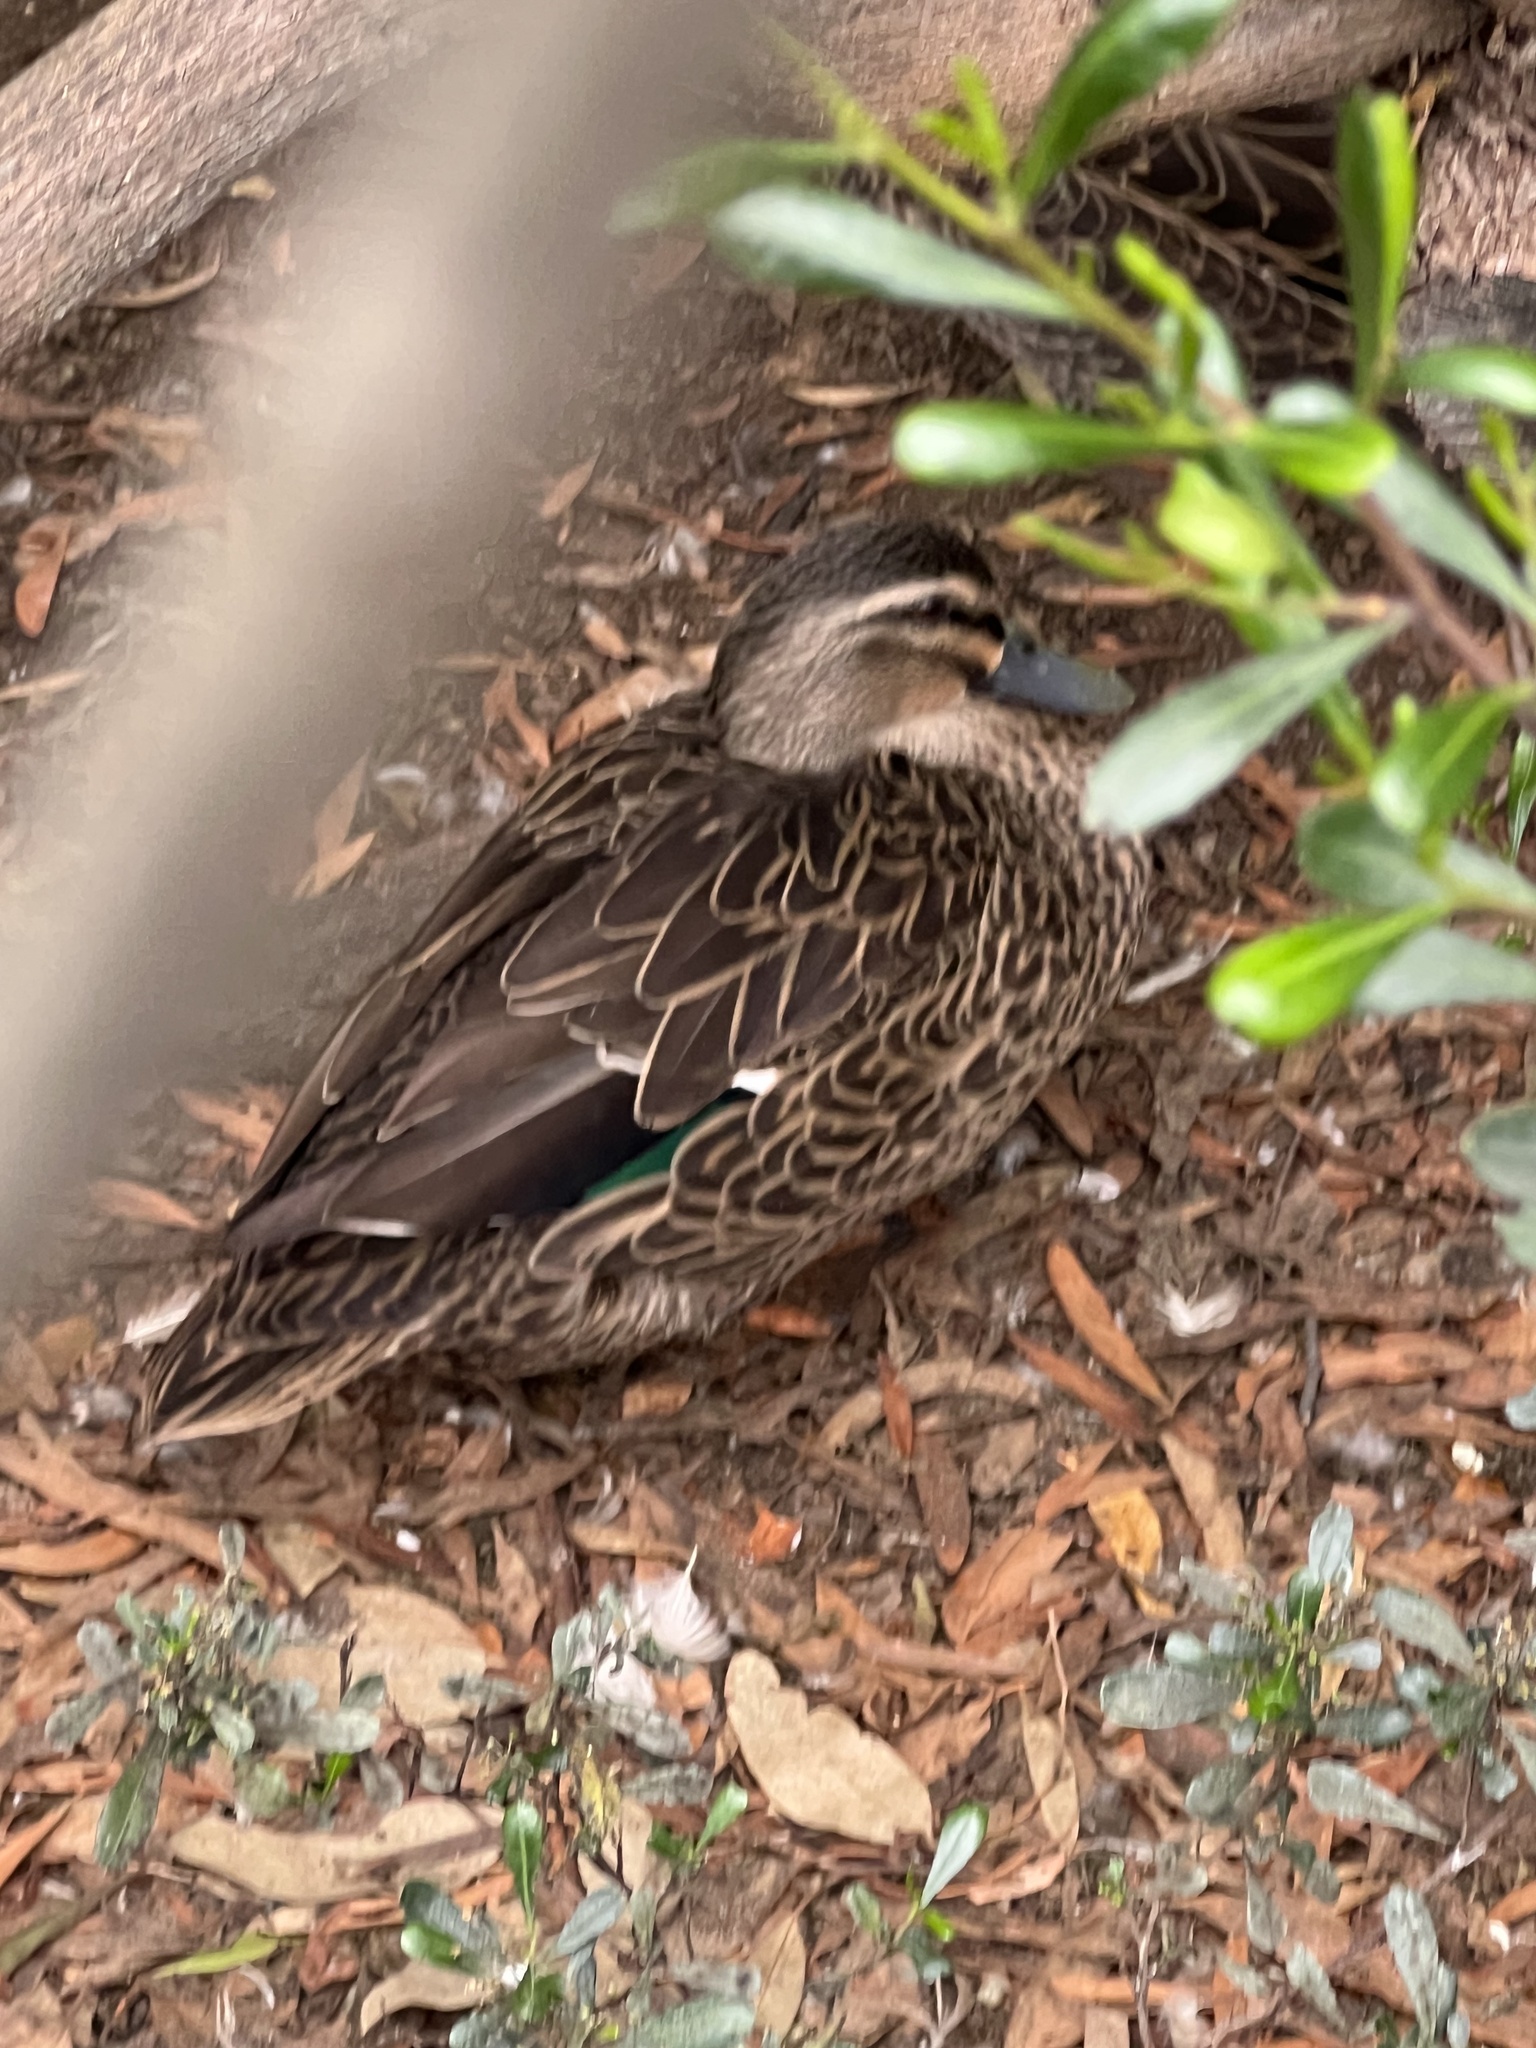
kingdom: Animalia
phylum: Chordata
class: Aves
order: Anseriformes
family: Anatidae
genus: Anas
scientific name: Anas
